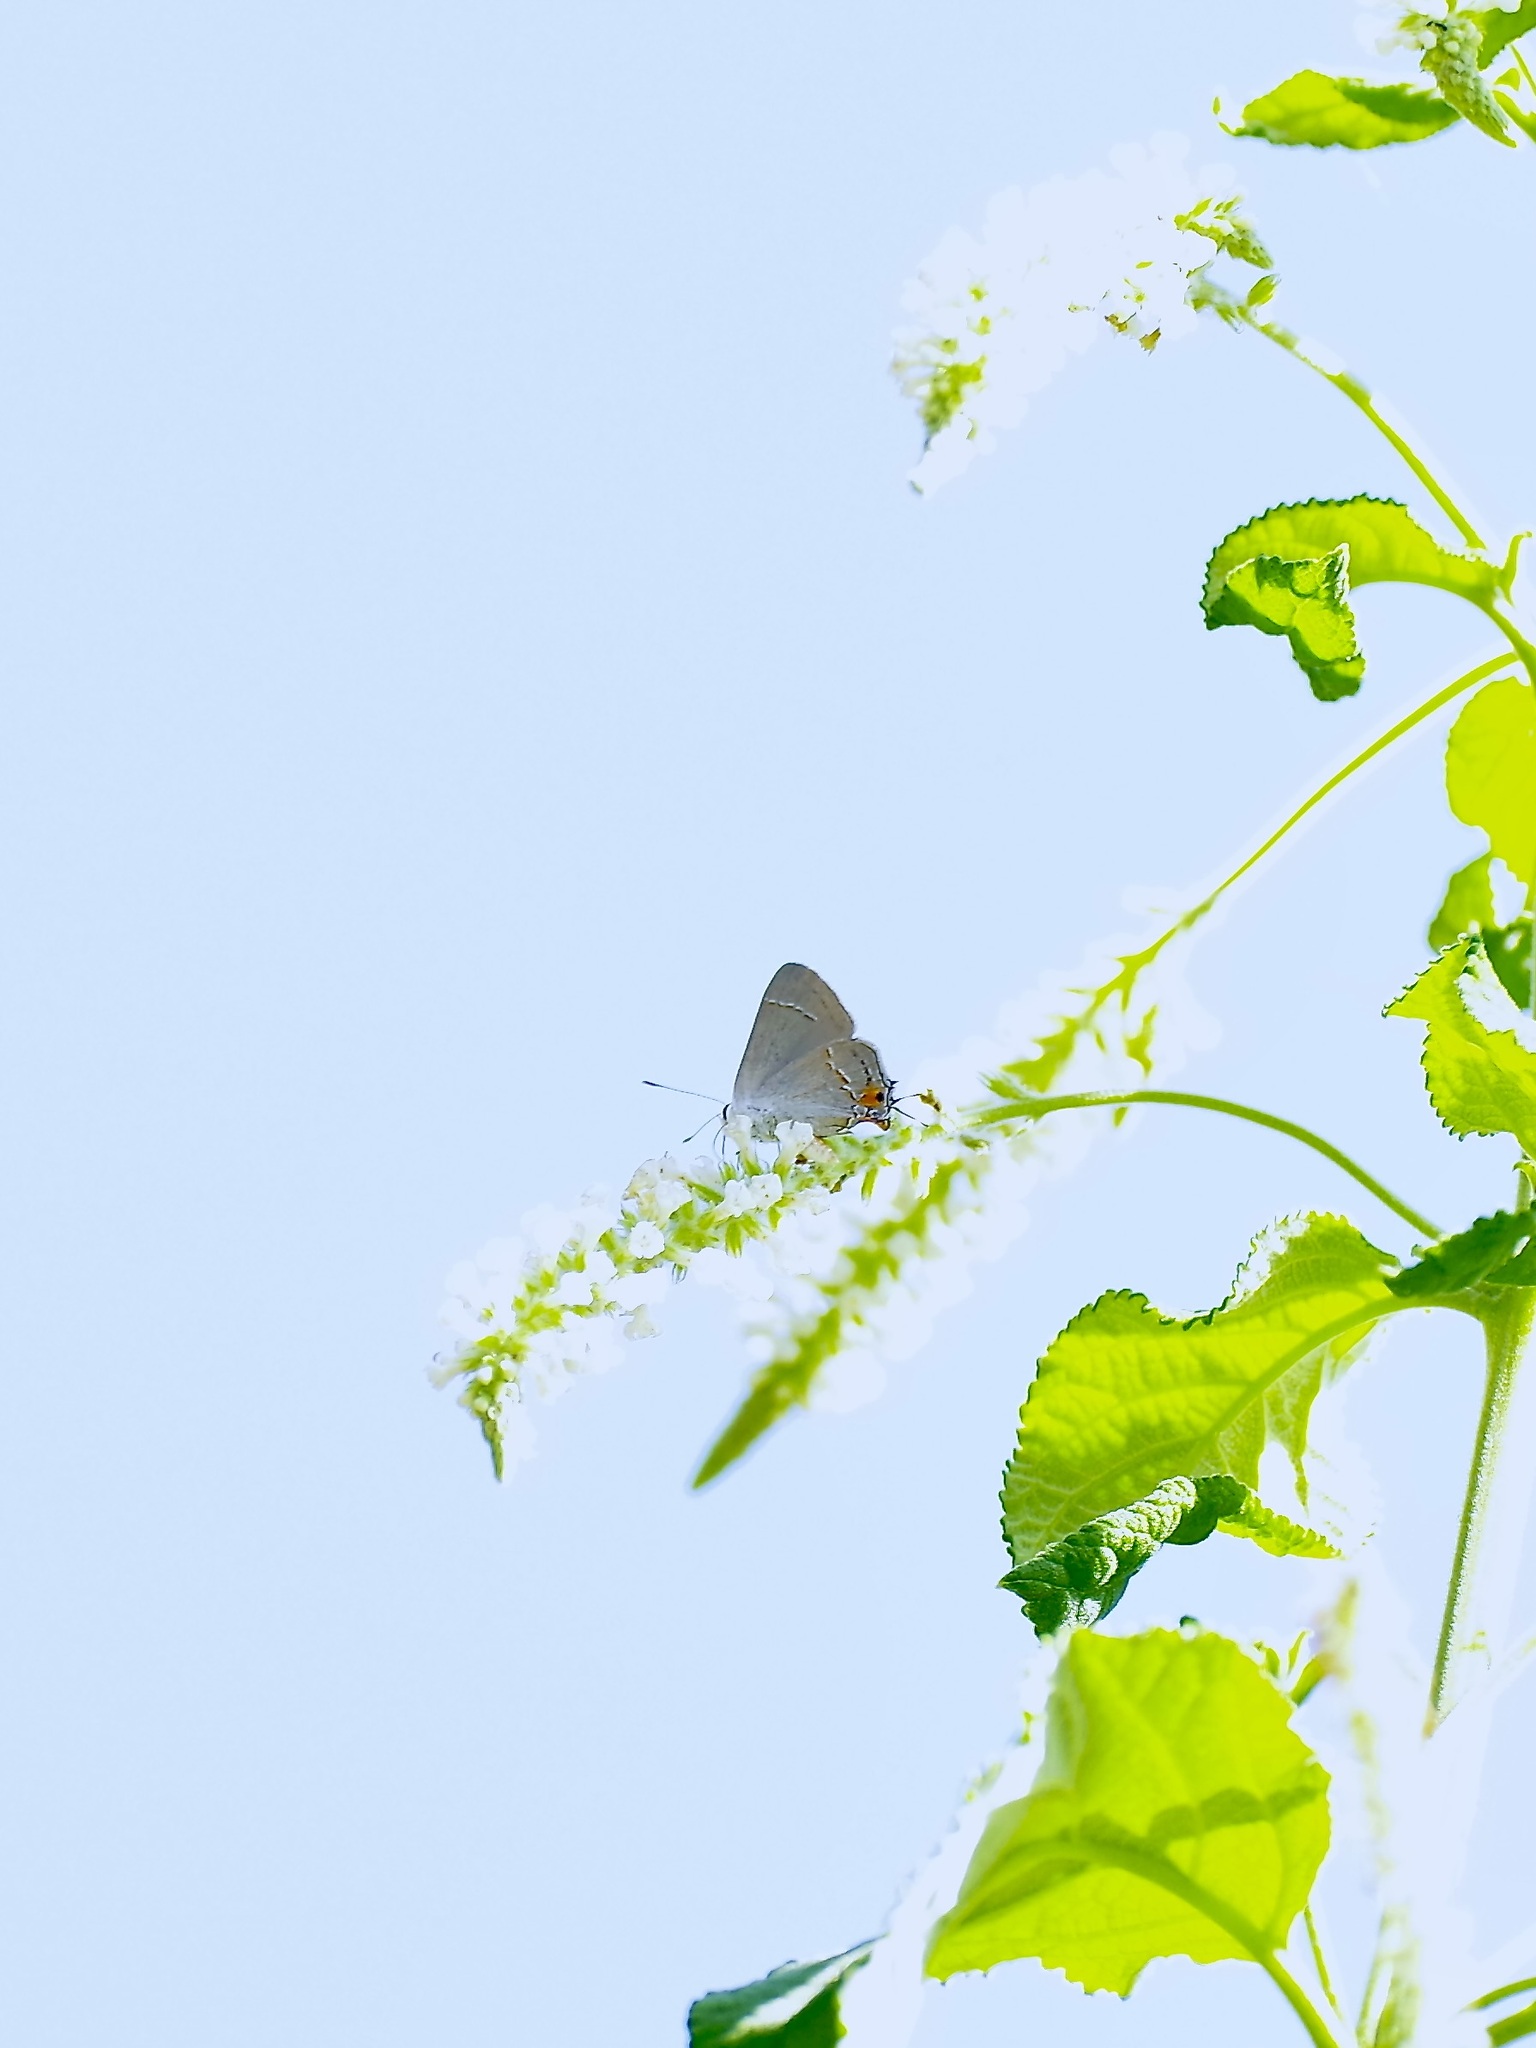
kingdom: Animalia
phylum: Arthropoda
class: Insecta
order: Lepidoptera
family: Lycaenidae
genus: Strymon
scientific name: Strymon melinus
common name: Gray hairstreak
